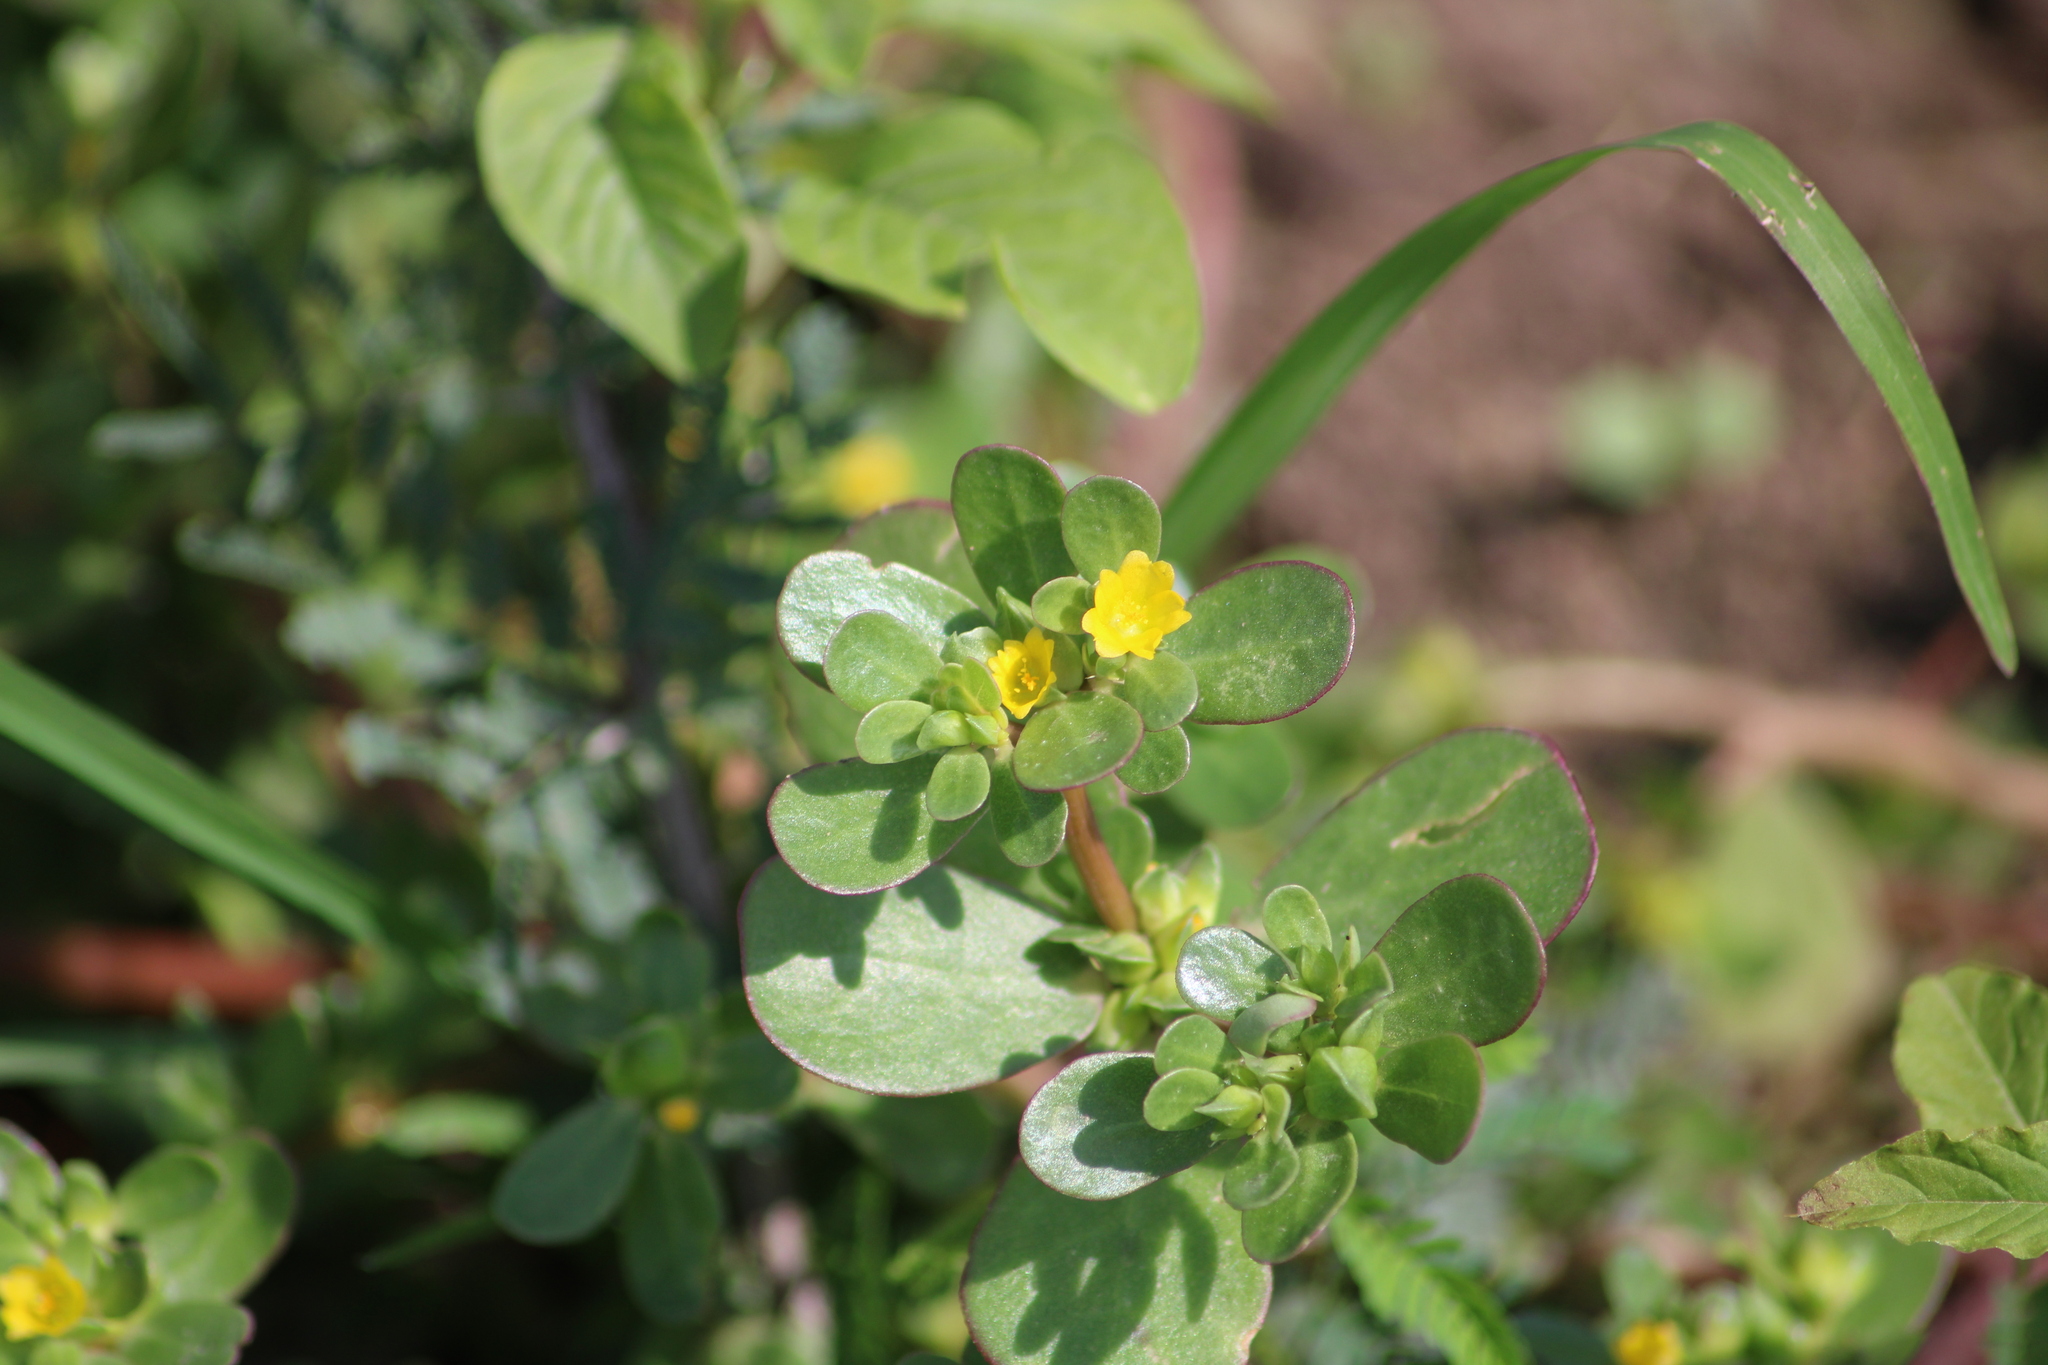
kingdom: Plantae
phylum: Tracheophyta
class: Magnoliopsida
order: Caryophyllales
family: Portulacaceae
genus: Portulaca
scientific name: Portulaca oleracea
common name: Common purslane
